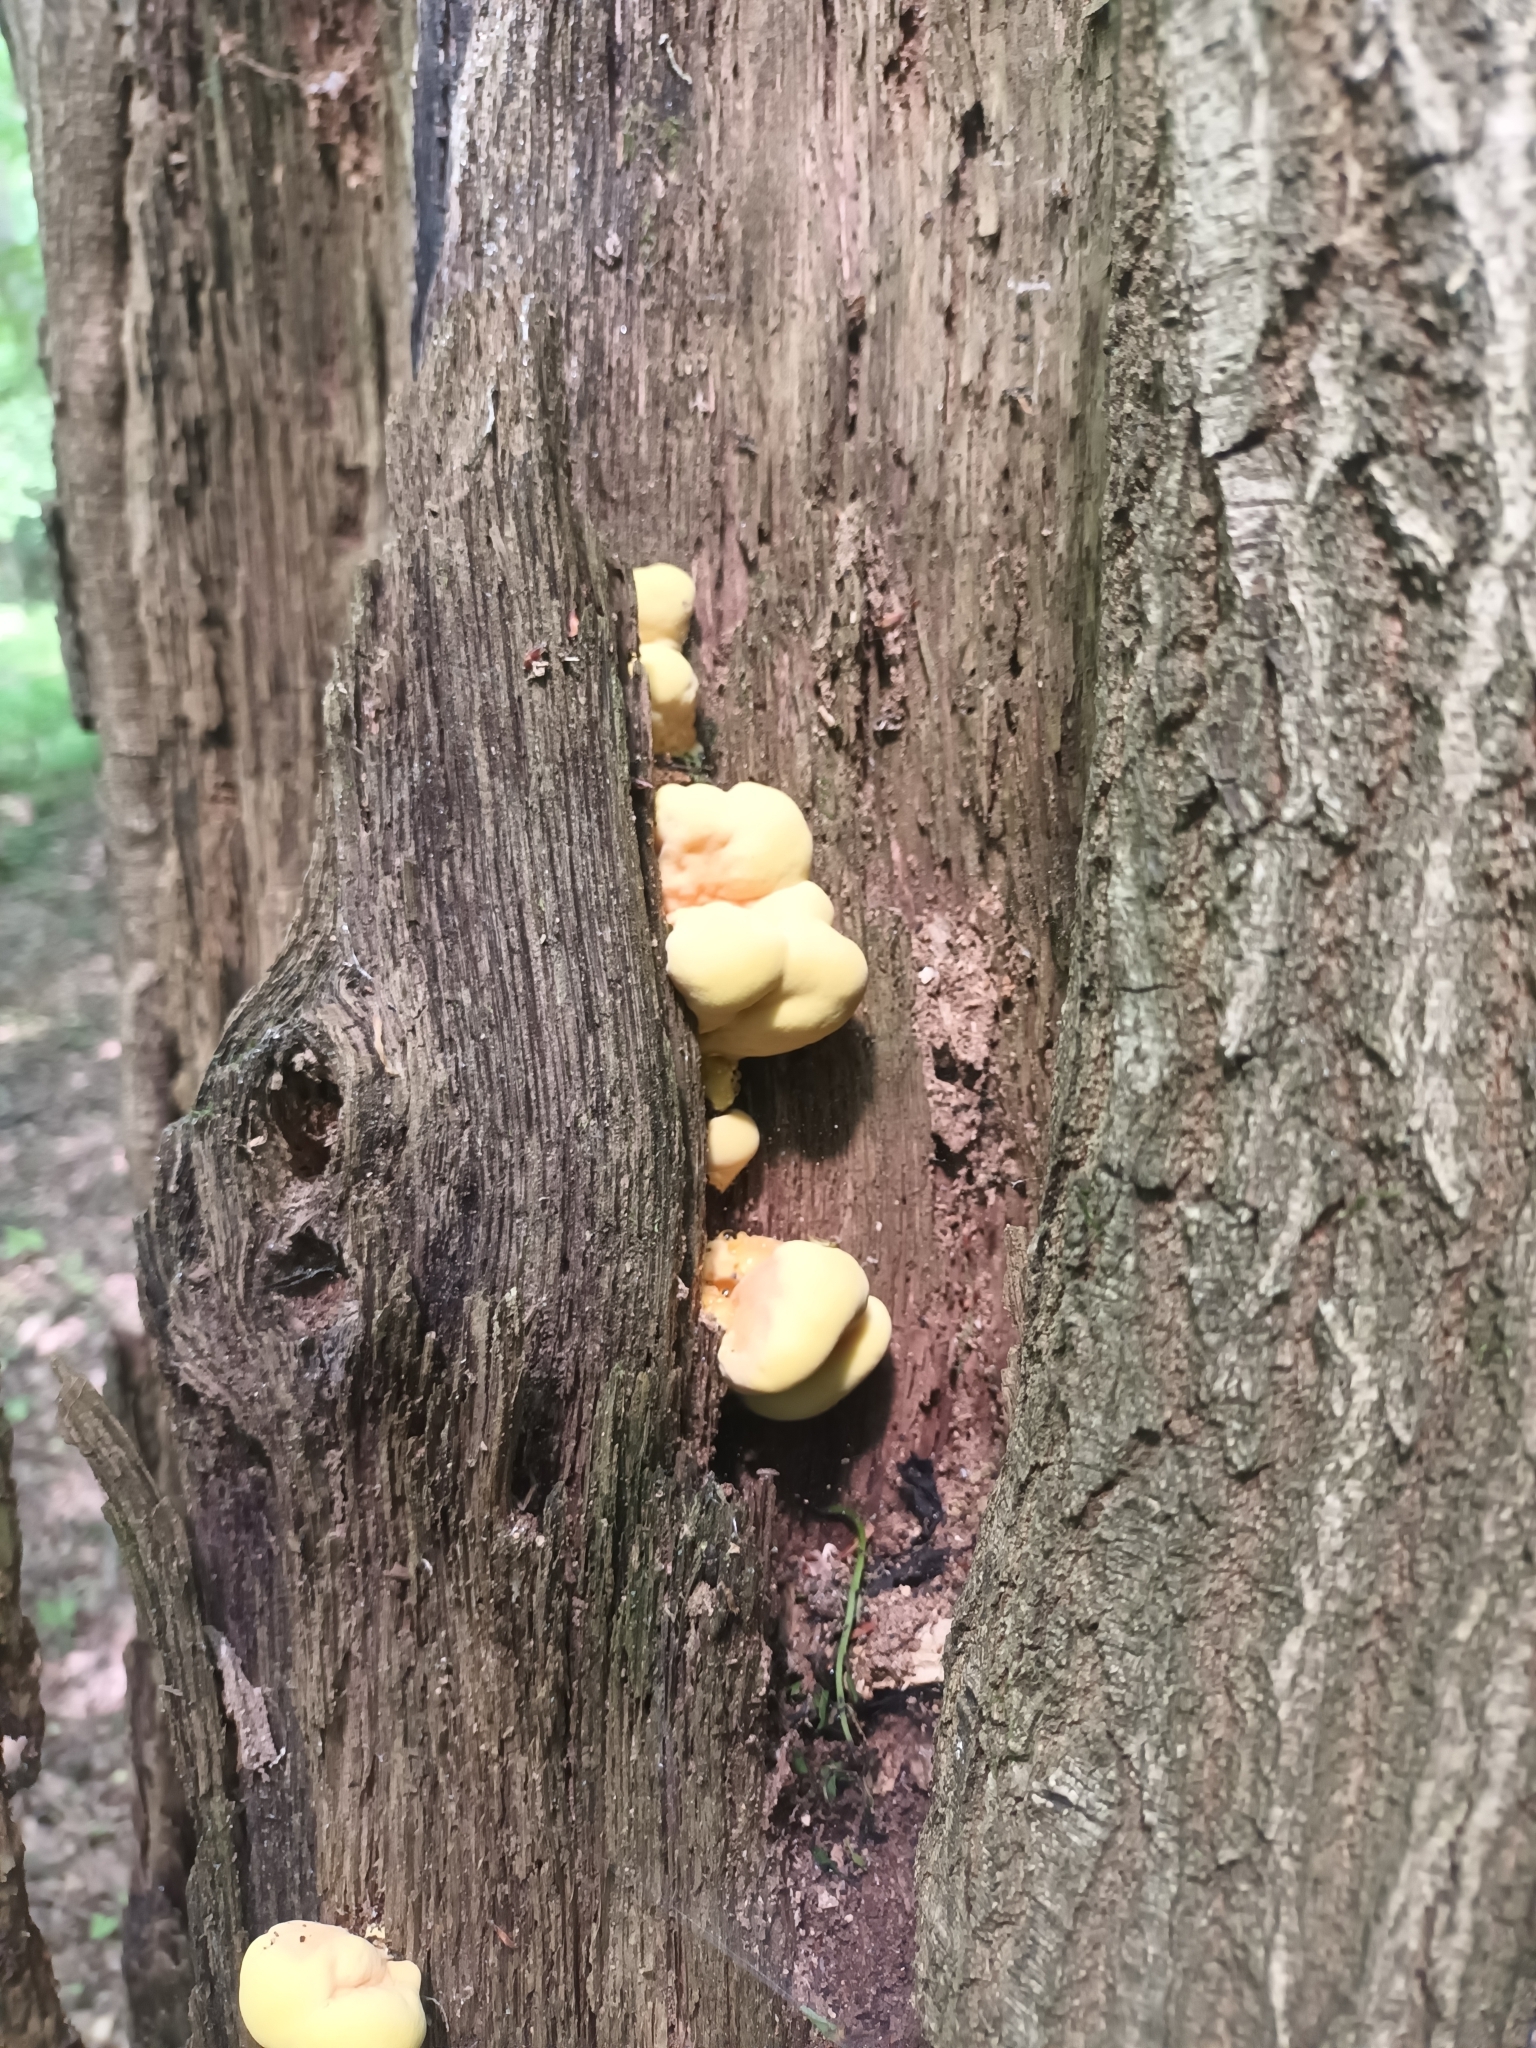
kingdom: Fungi
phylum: Basidiomycota
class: Agaricomycetes
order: Polyporales
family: Laetiporaceae
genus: Laetiporus
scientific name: Laetiporus sulphureus
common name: Chicken of the woods
